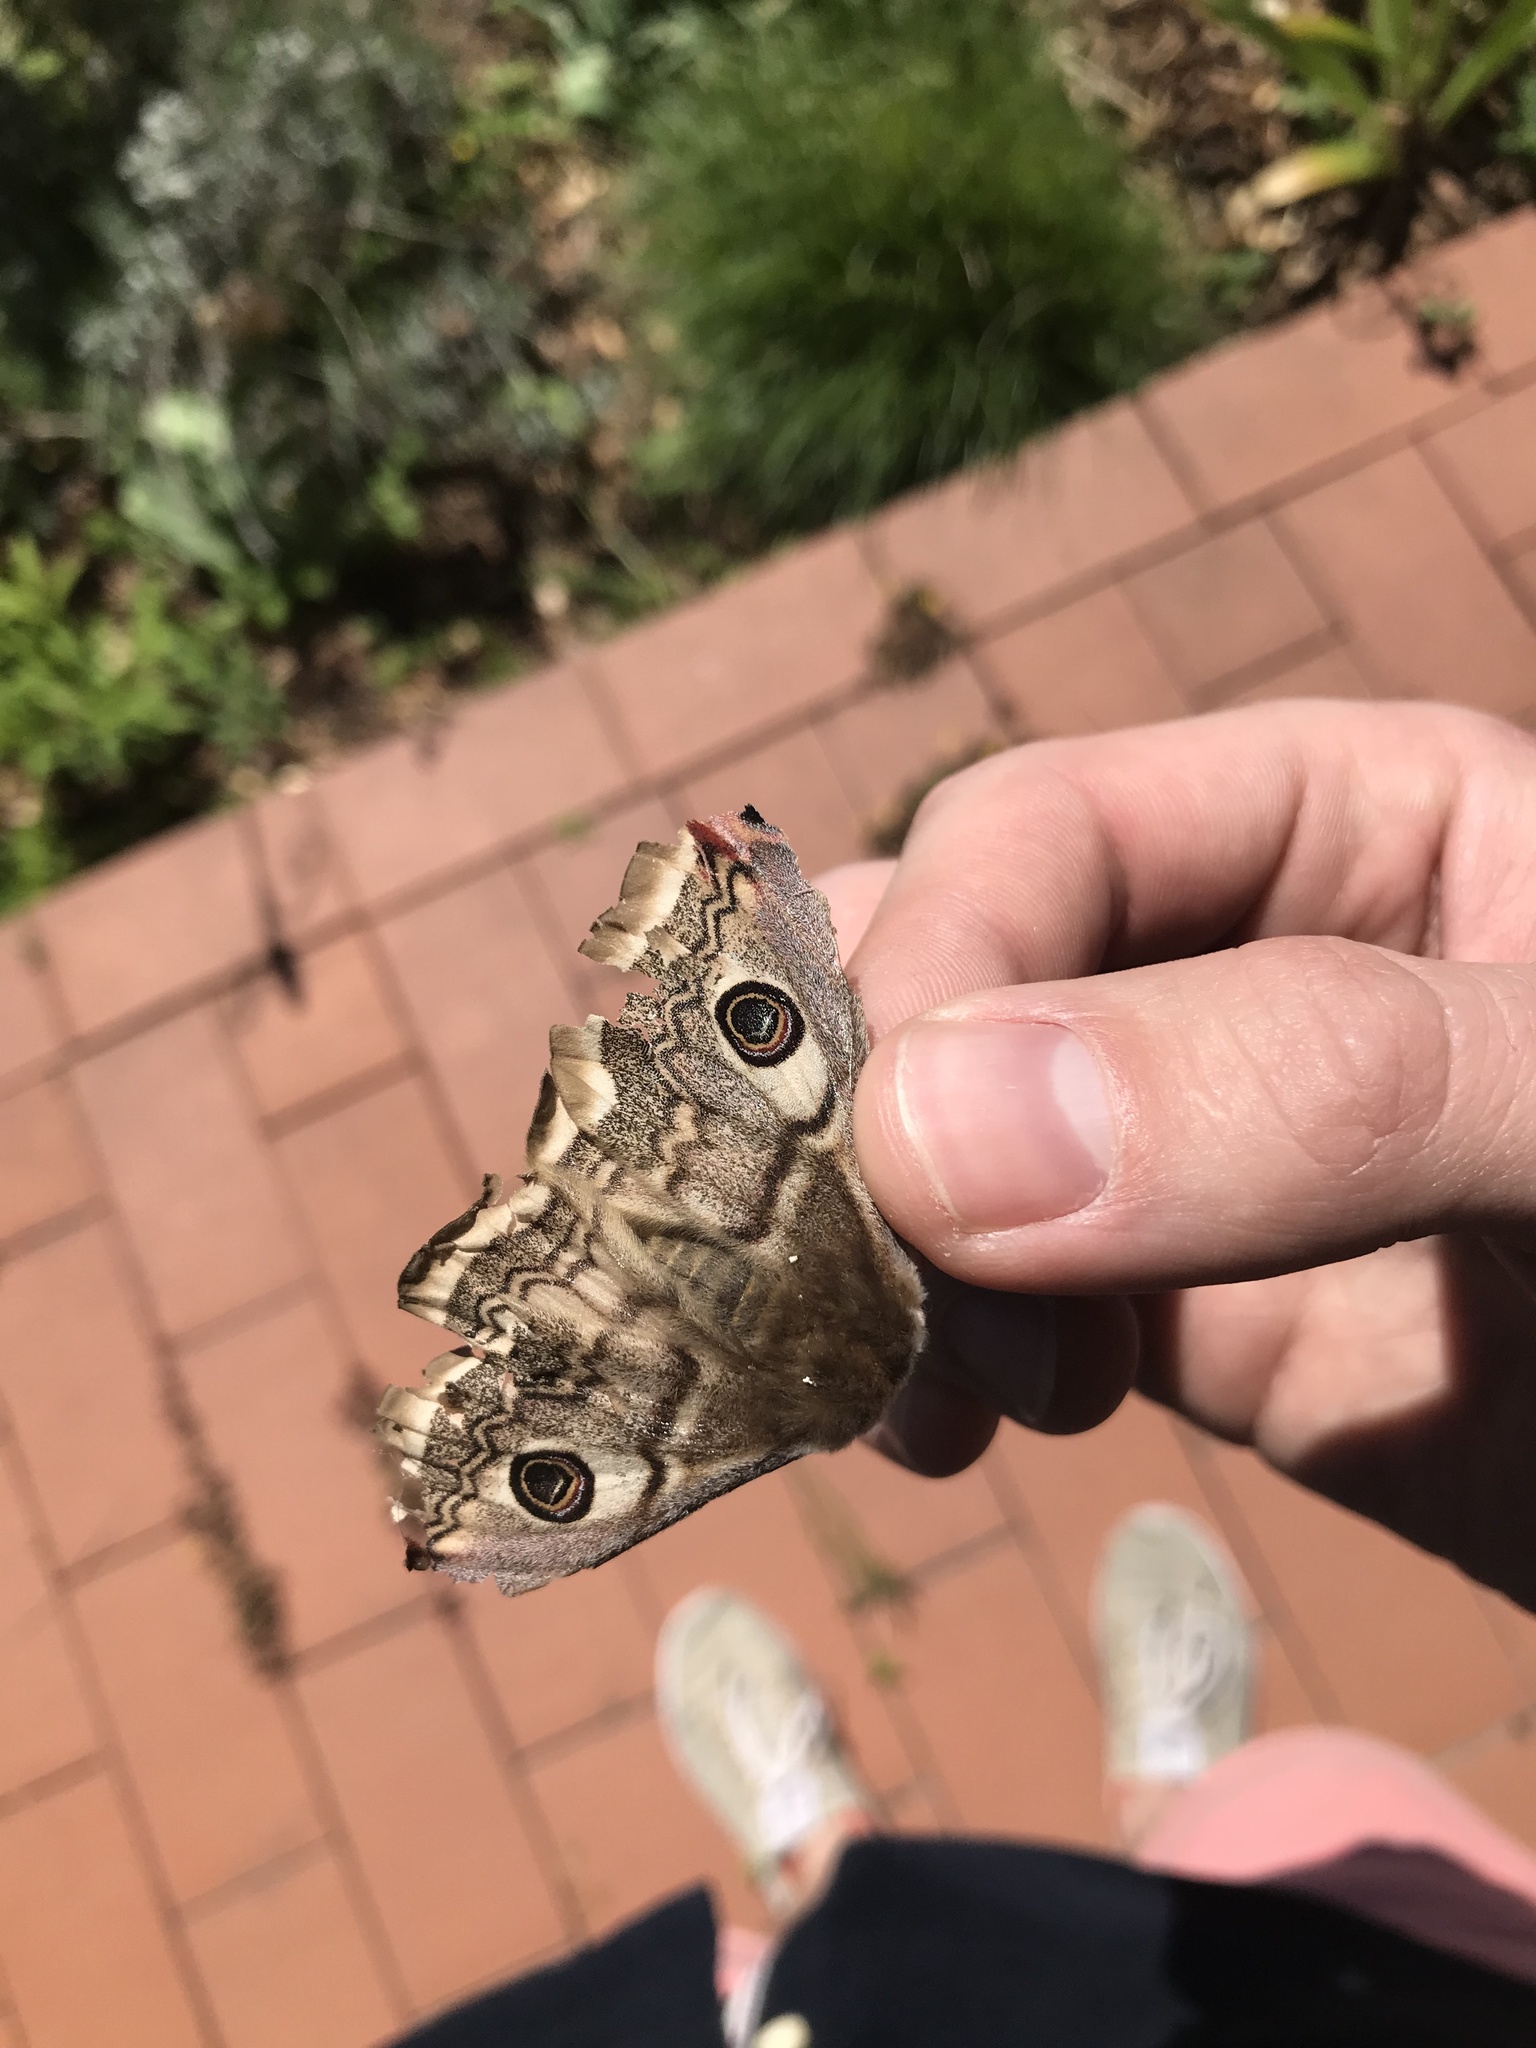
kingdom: Animalia
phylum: Arthropoda
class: Insecta
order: Lepidoptera
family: Saturniidae
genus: Saturnia
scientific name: Saturnia pavoniella
